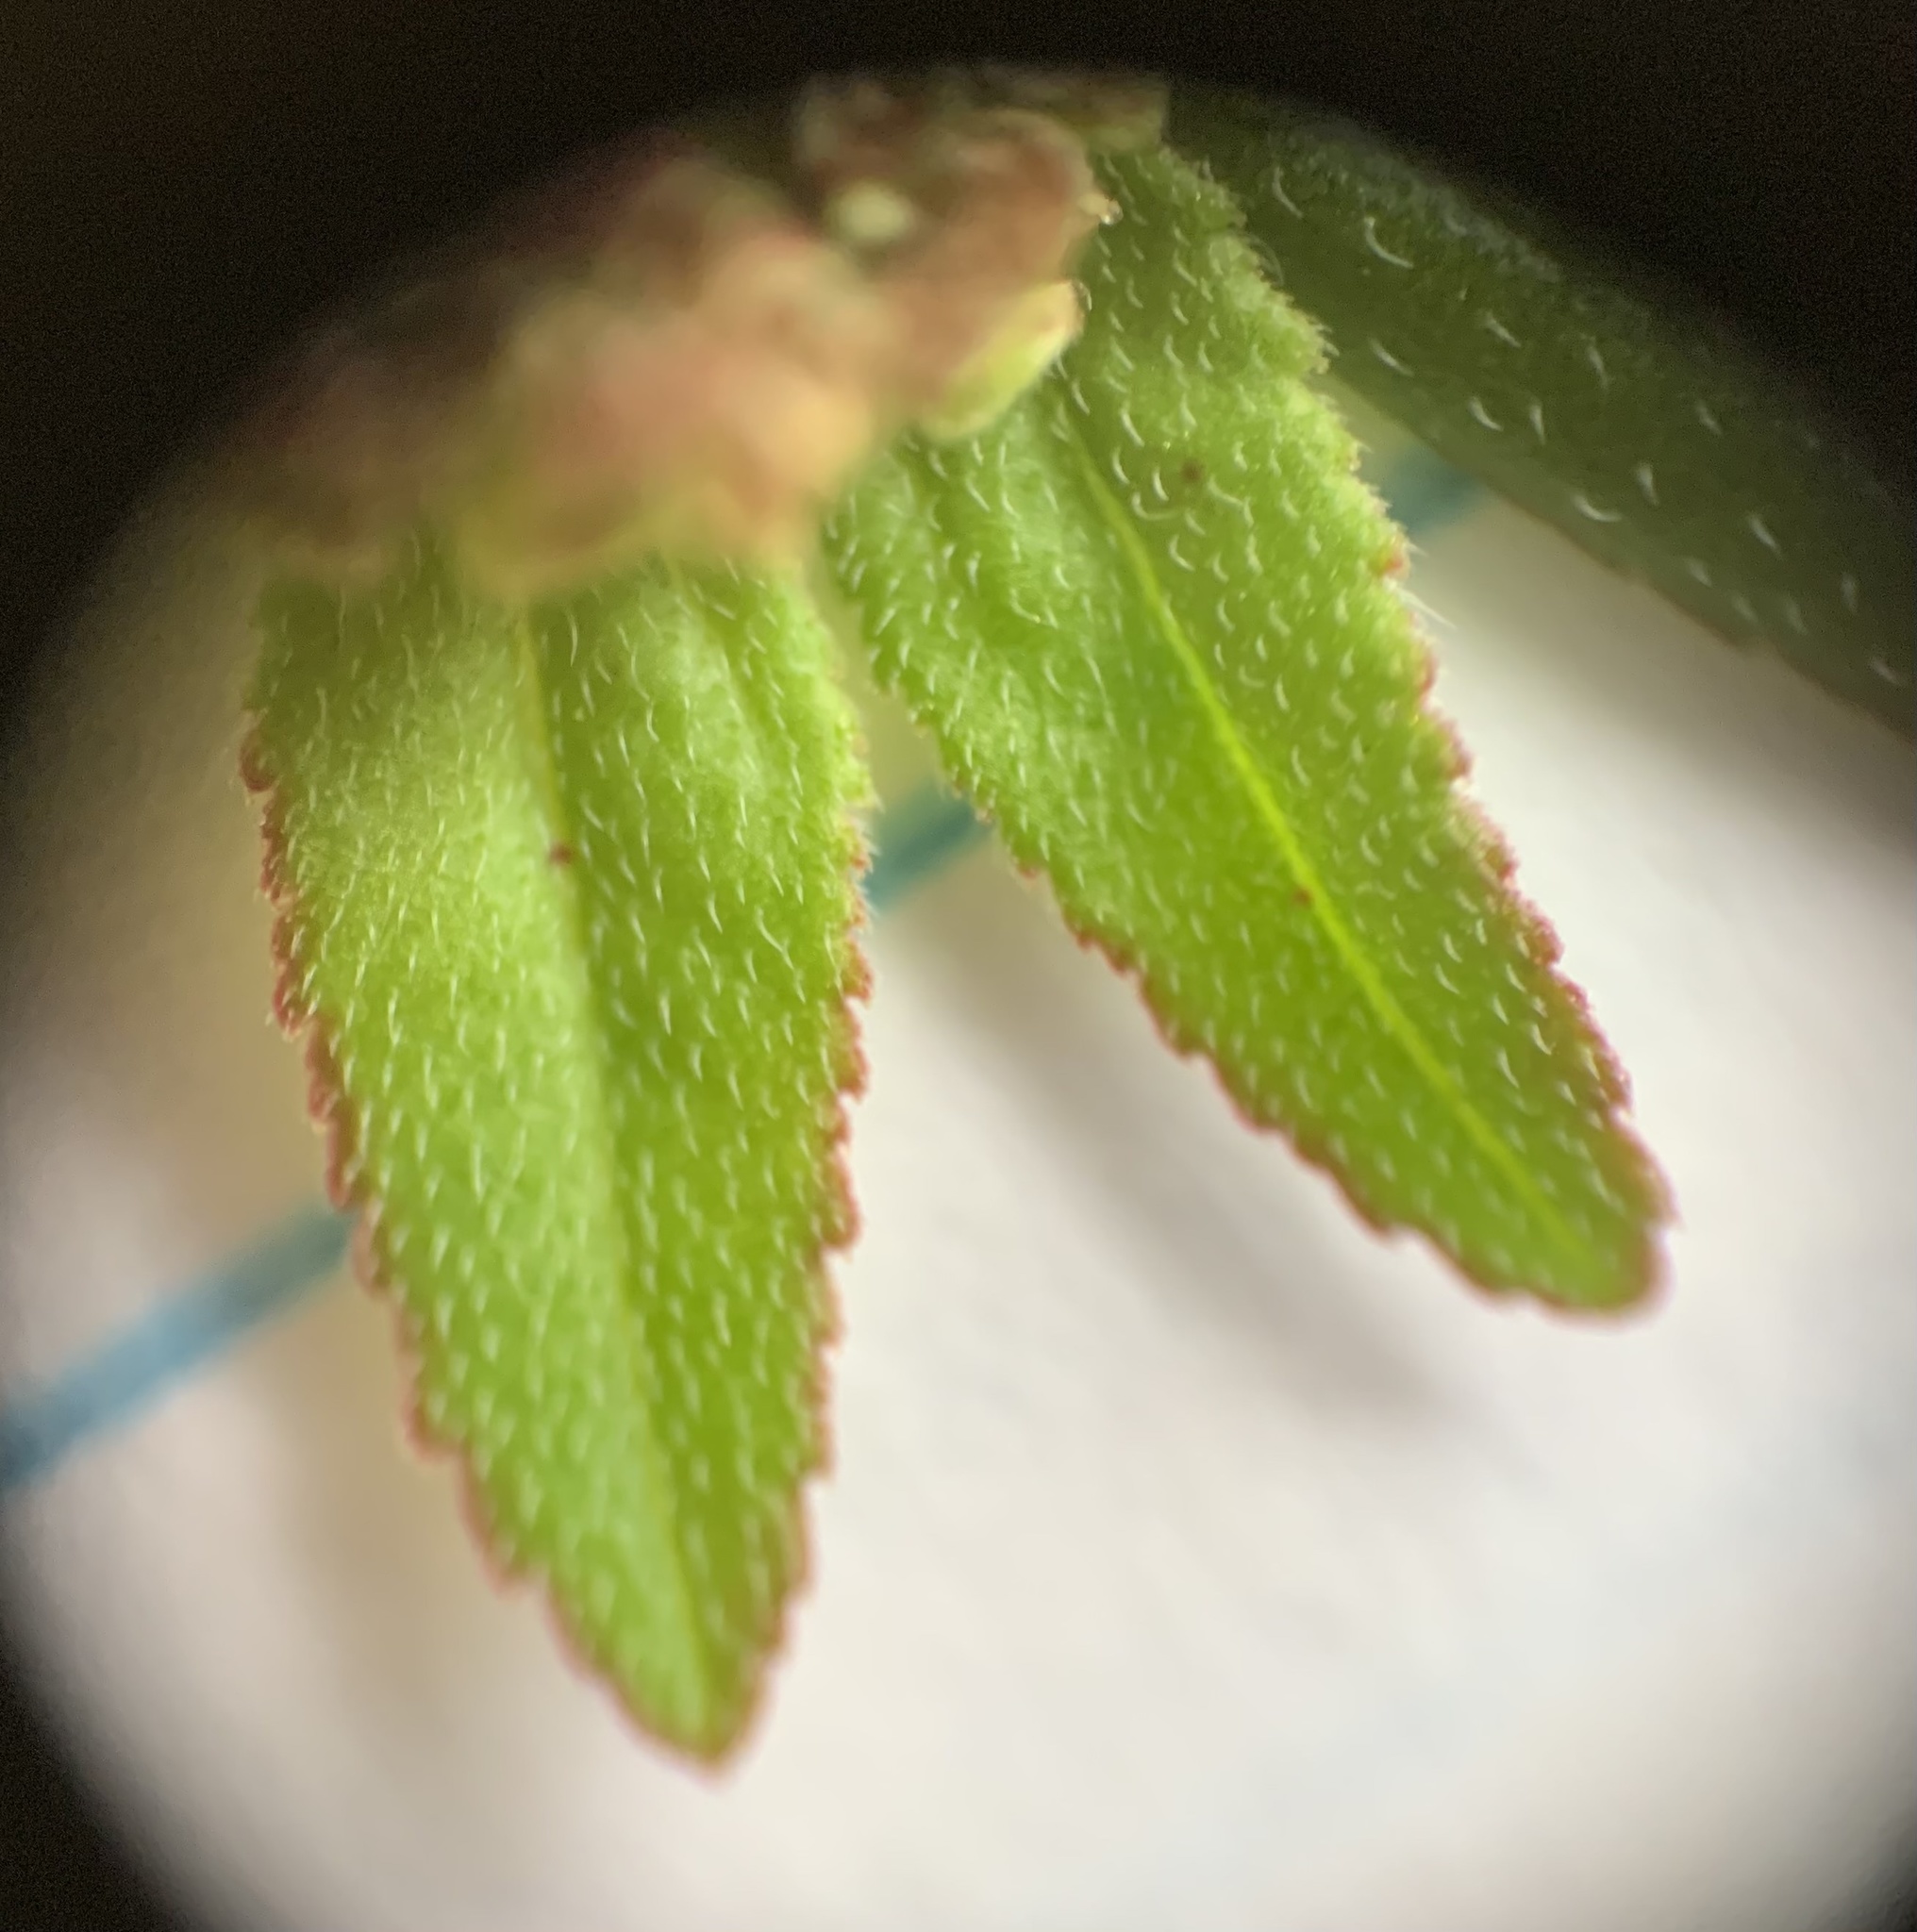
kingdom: Plantae
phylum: Tracheophyta
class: Magnoliopsida
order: Malpighiales
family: Euphorbiaceae
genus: Euphorbia
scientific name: Euphorbia hirta
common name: Pillpod sandmat
